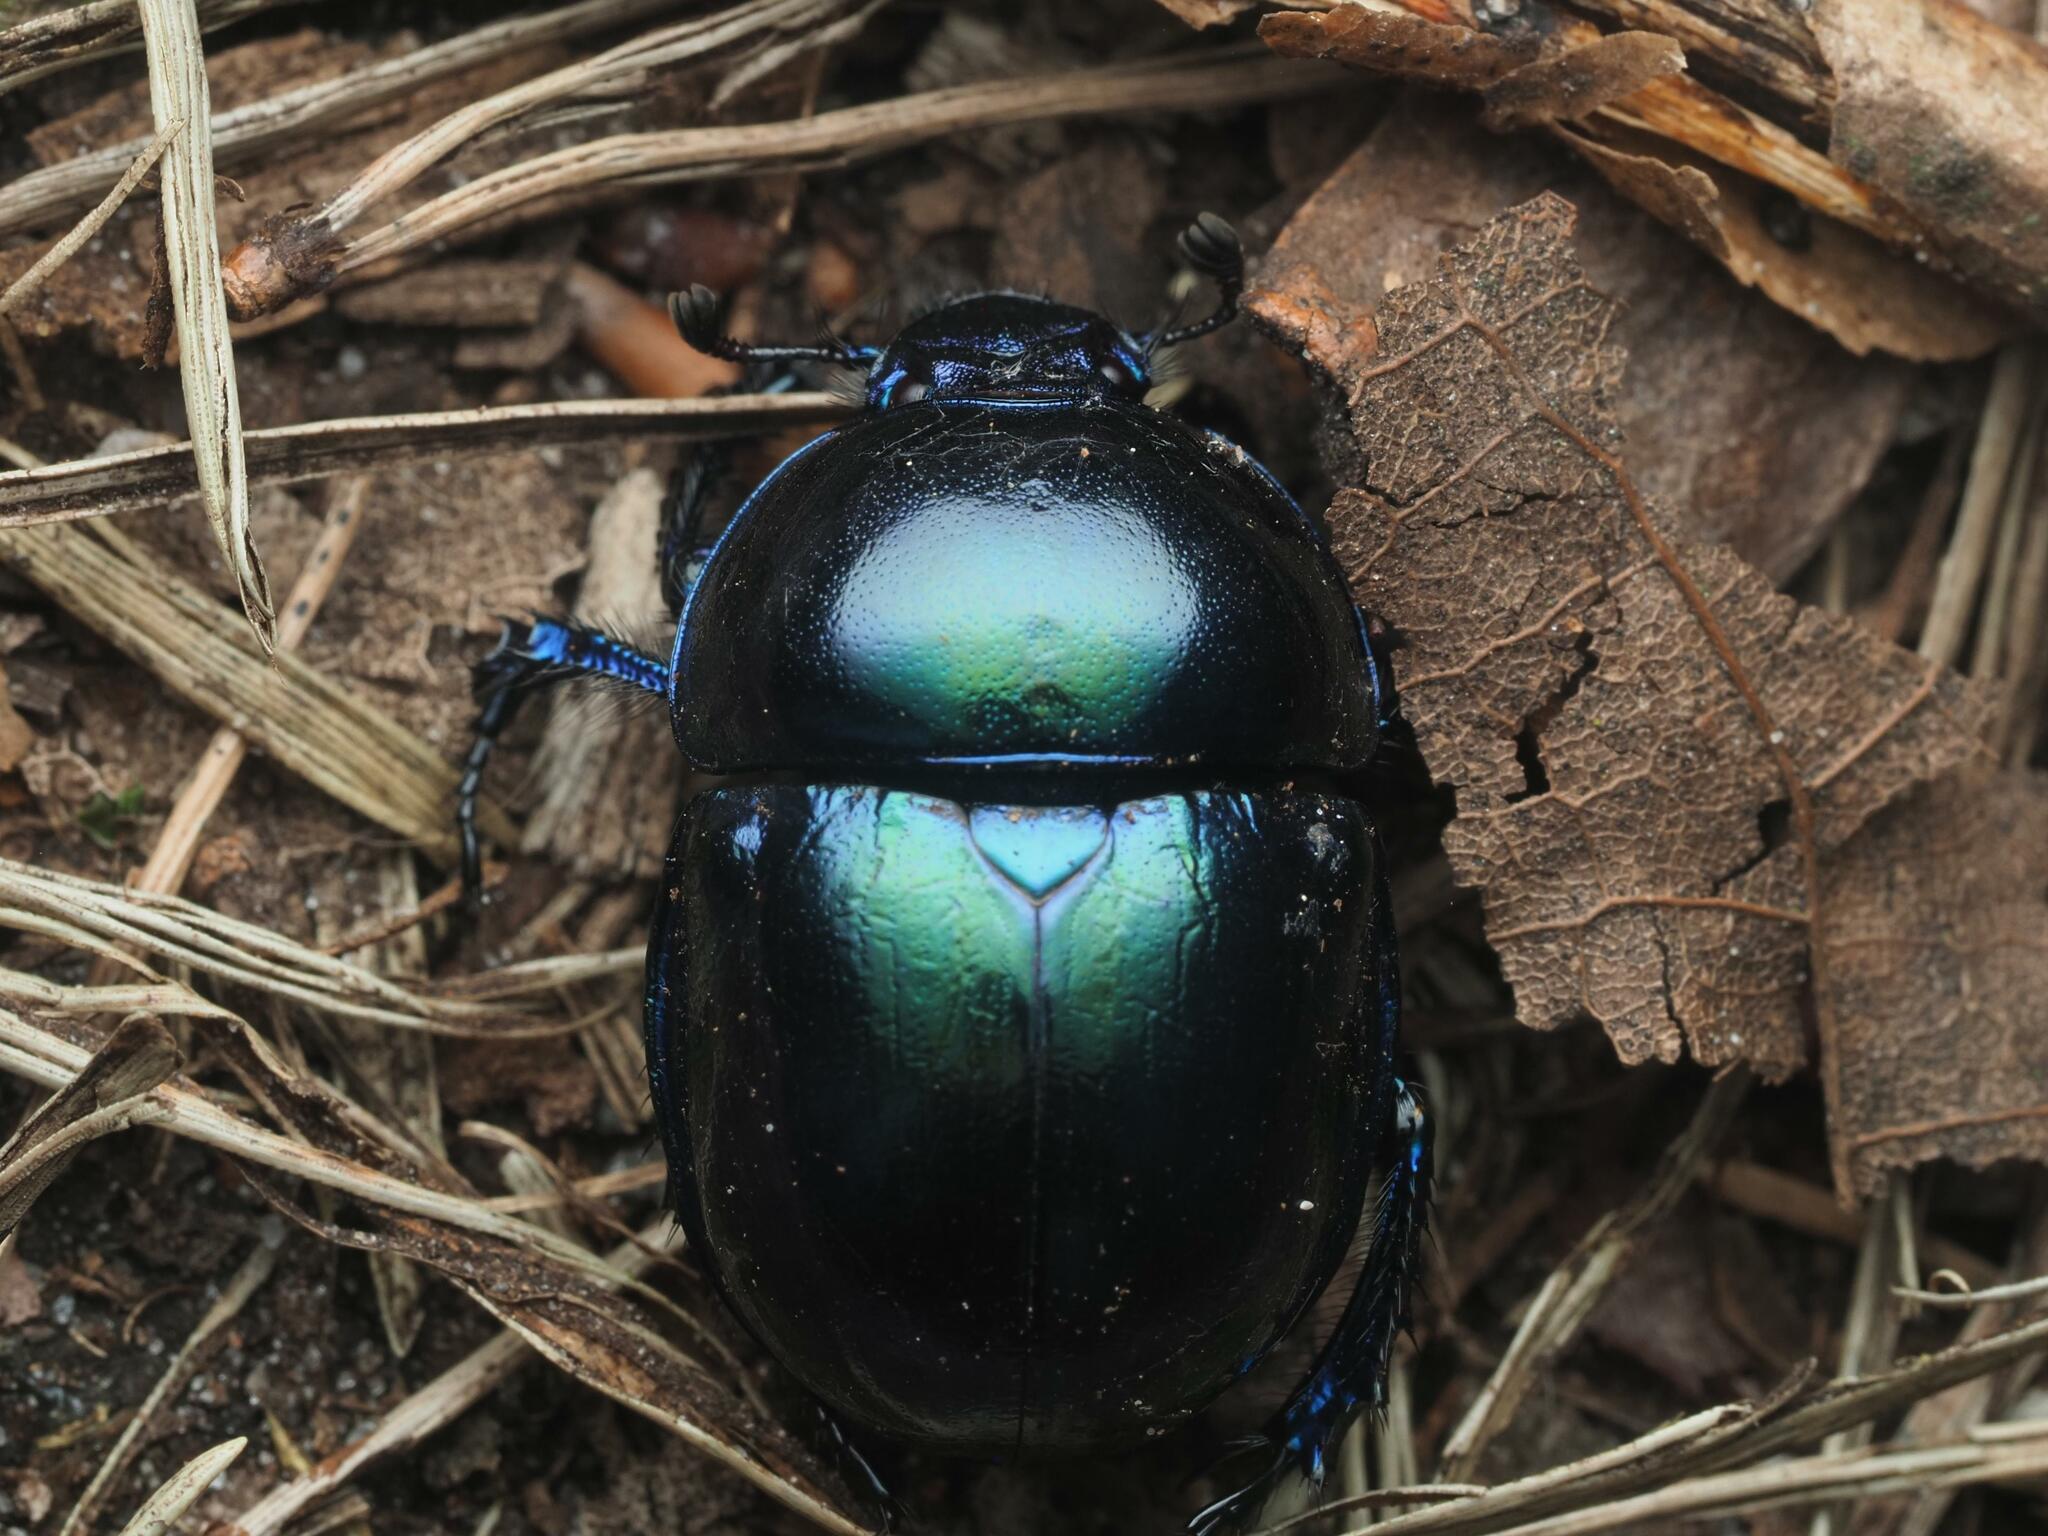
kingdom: Animalia
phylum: Arthropoda
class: Insecta
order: Coleoptera
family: Geotrupidae
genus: Trypocopris
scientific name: Trypocopris vernalis
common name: Spring dumbledor
